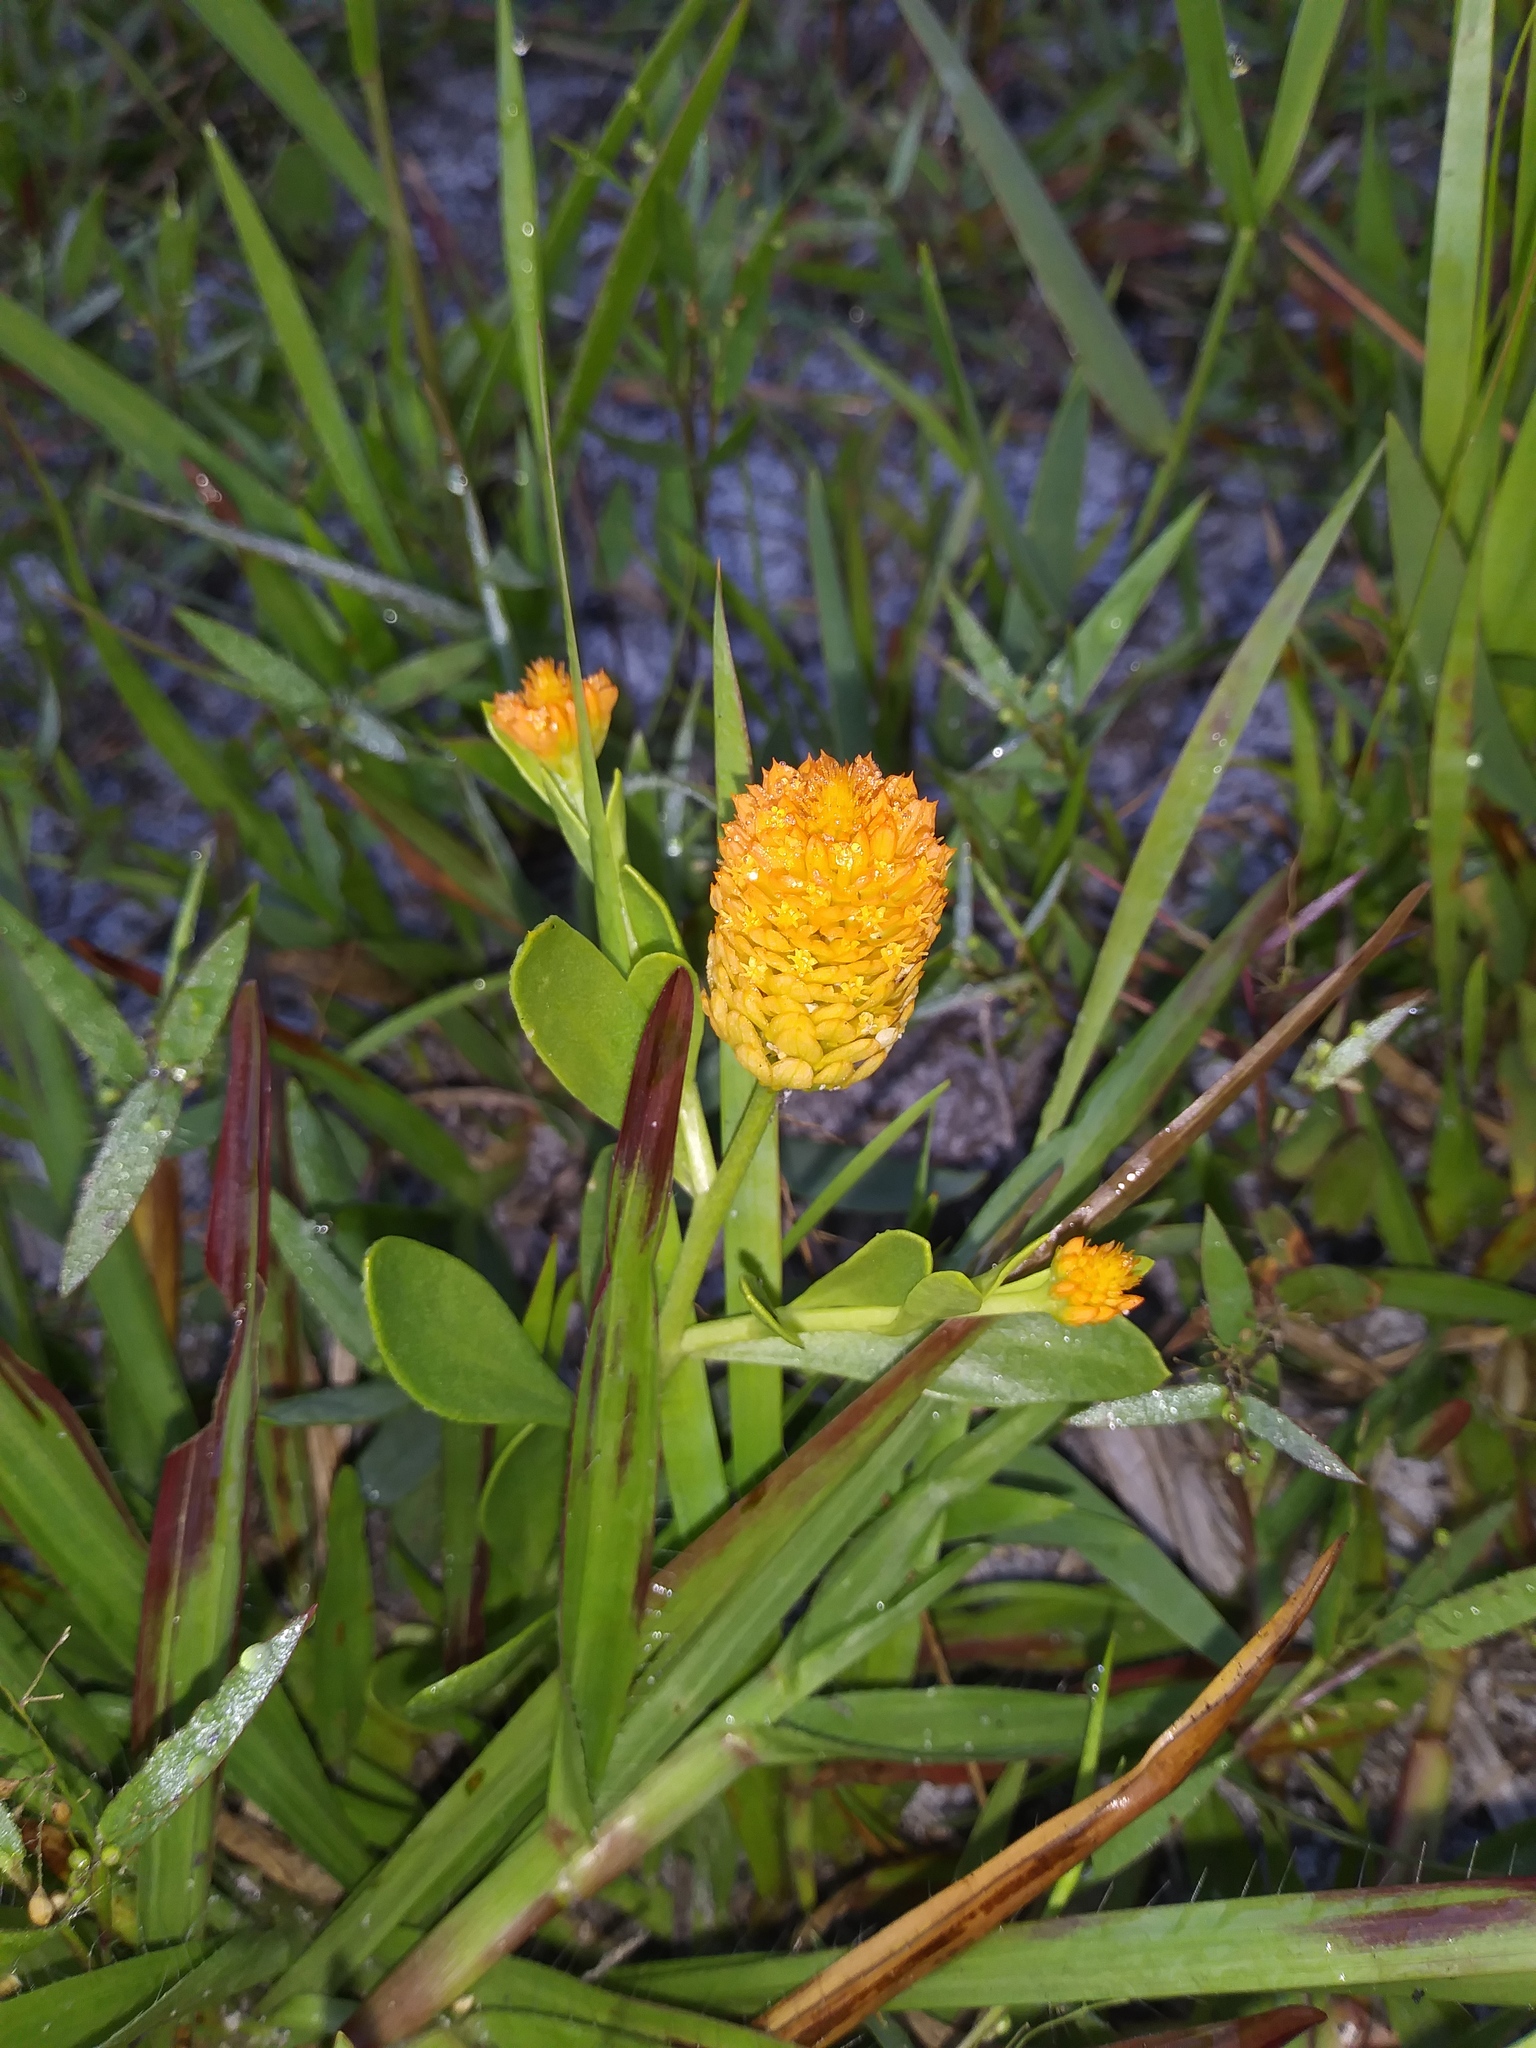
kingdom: Plantae
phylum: Tracheophyta
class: Magnoliopsida
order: Fabales
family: Polygalaceae
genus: Polygala
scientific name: Polygala lutea
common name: Orange milkwort
